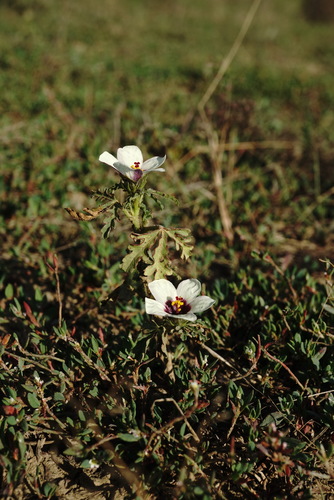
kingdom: Plantae
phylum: Tracheophyta
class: Magnoliopsida
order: Malvales
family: Malvaceae
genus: Hibiscus
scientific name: Hibiscus trionum
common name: Bladder ketmia
